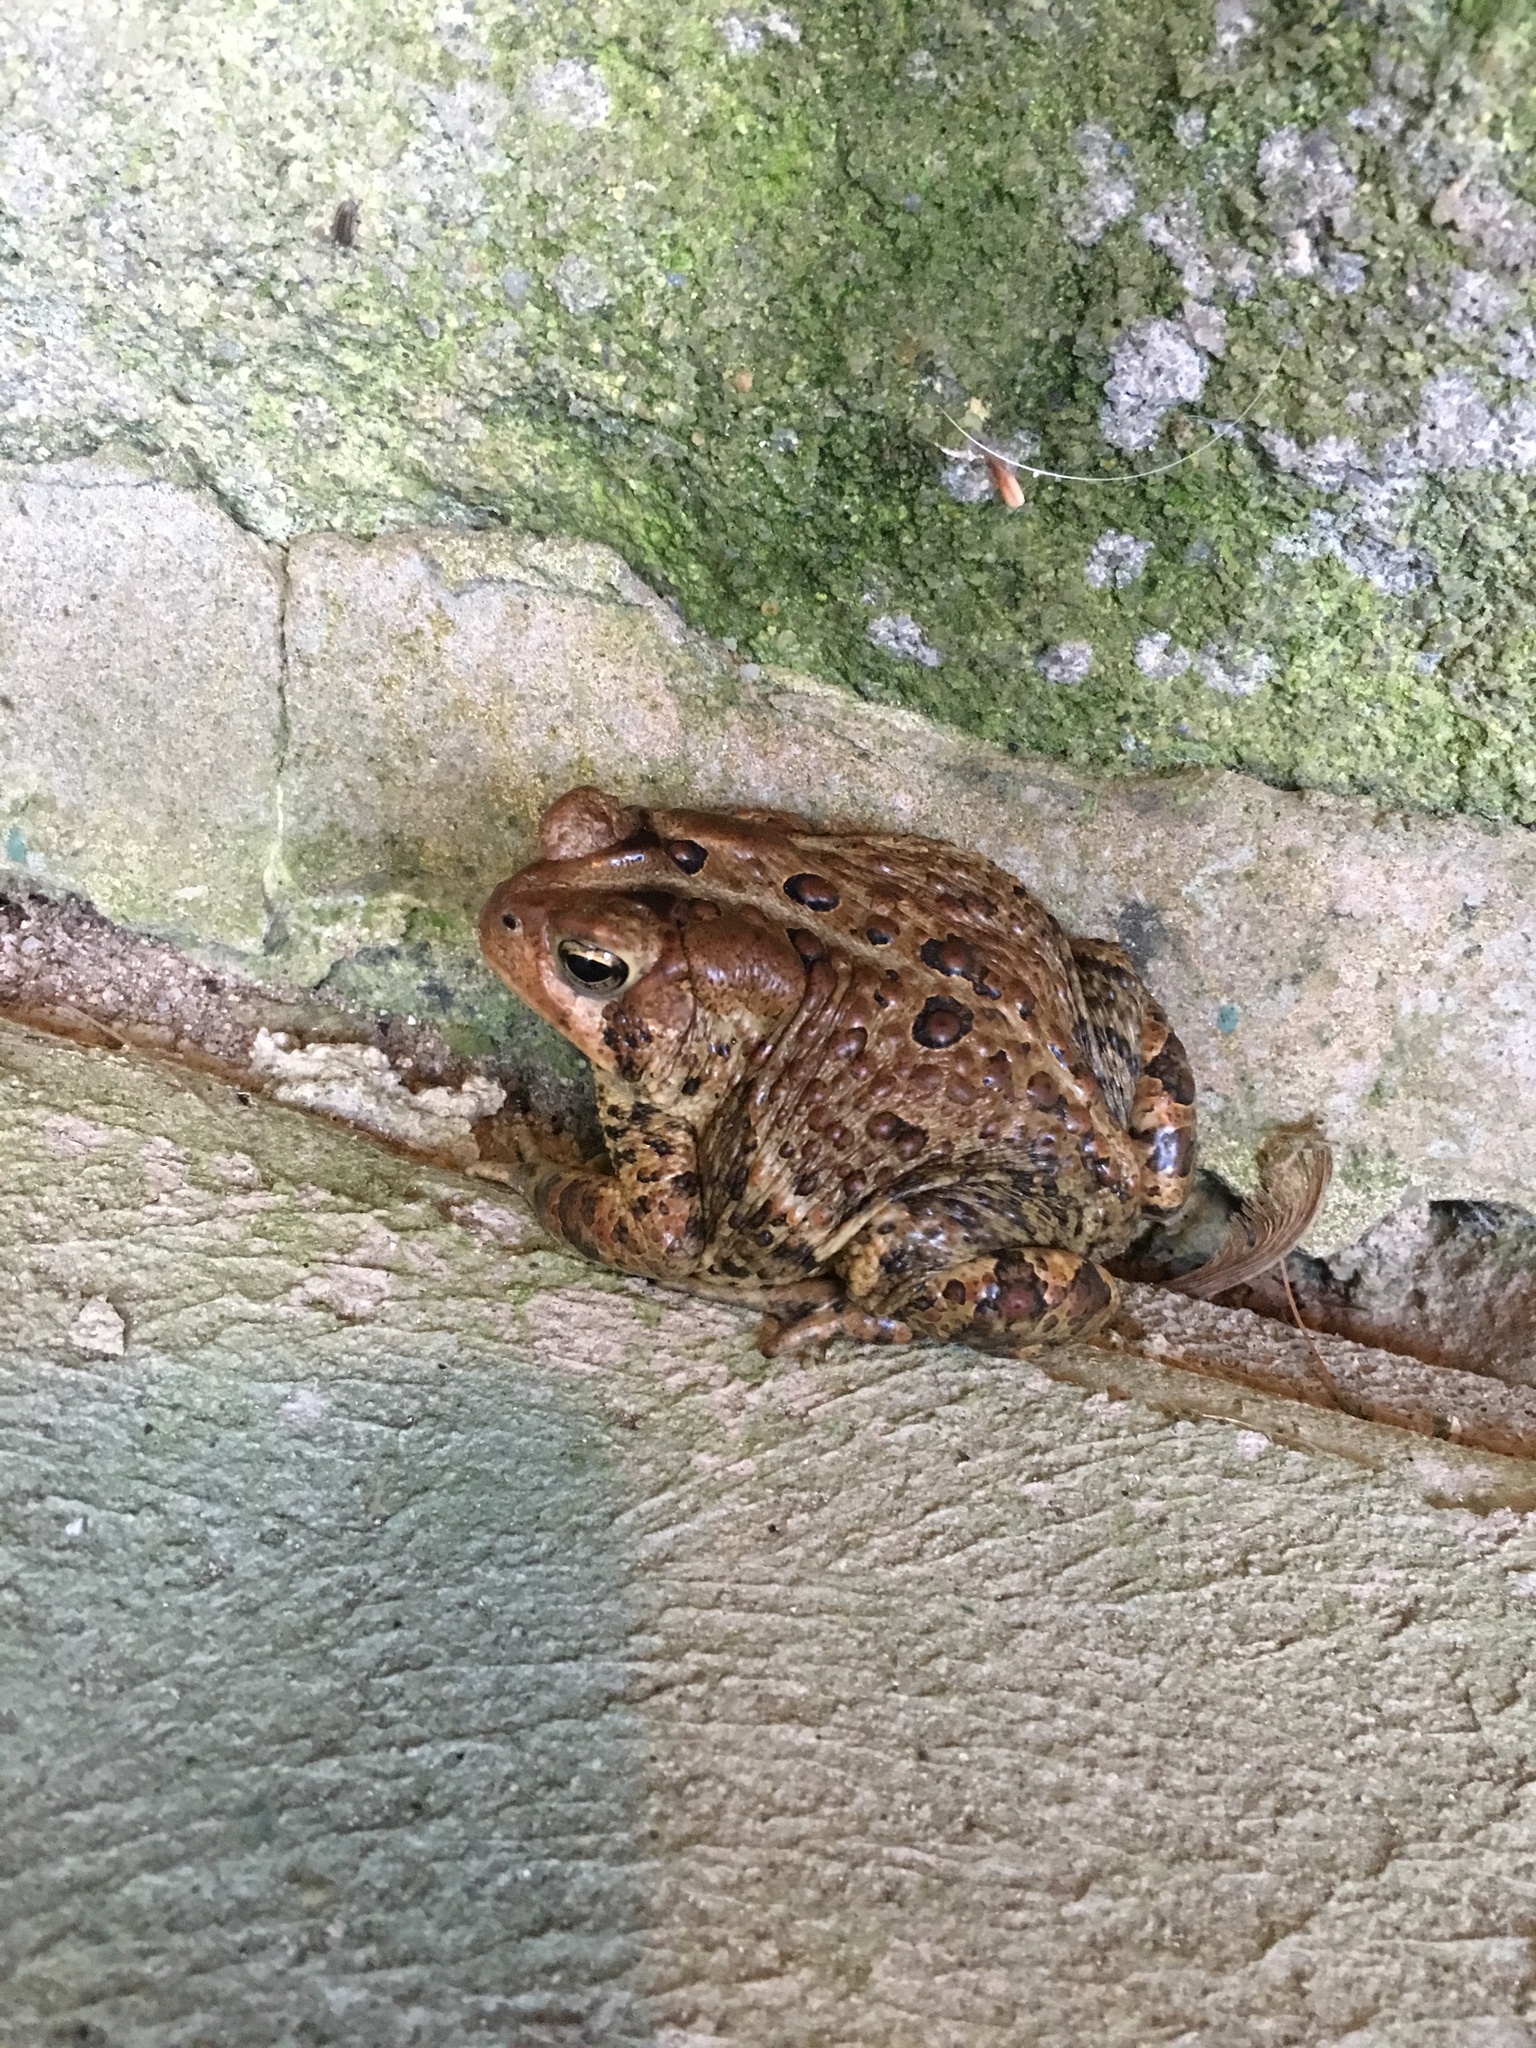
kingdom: Animalia
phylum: Chordata
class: Amphibia
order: Anura
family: Bufonidae
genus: Anaxyrus
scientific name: Anaxyrus americanus
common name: American toad
